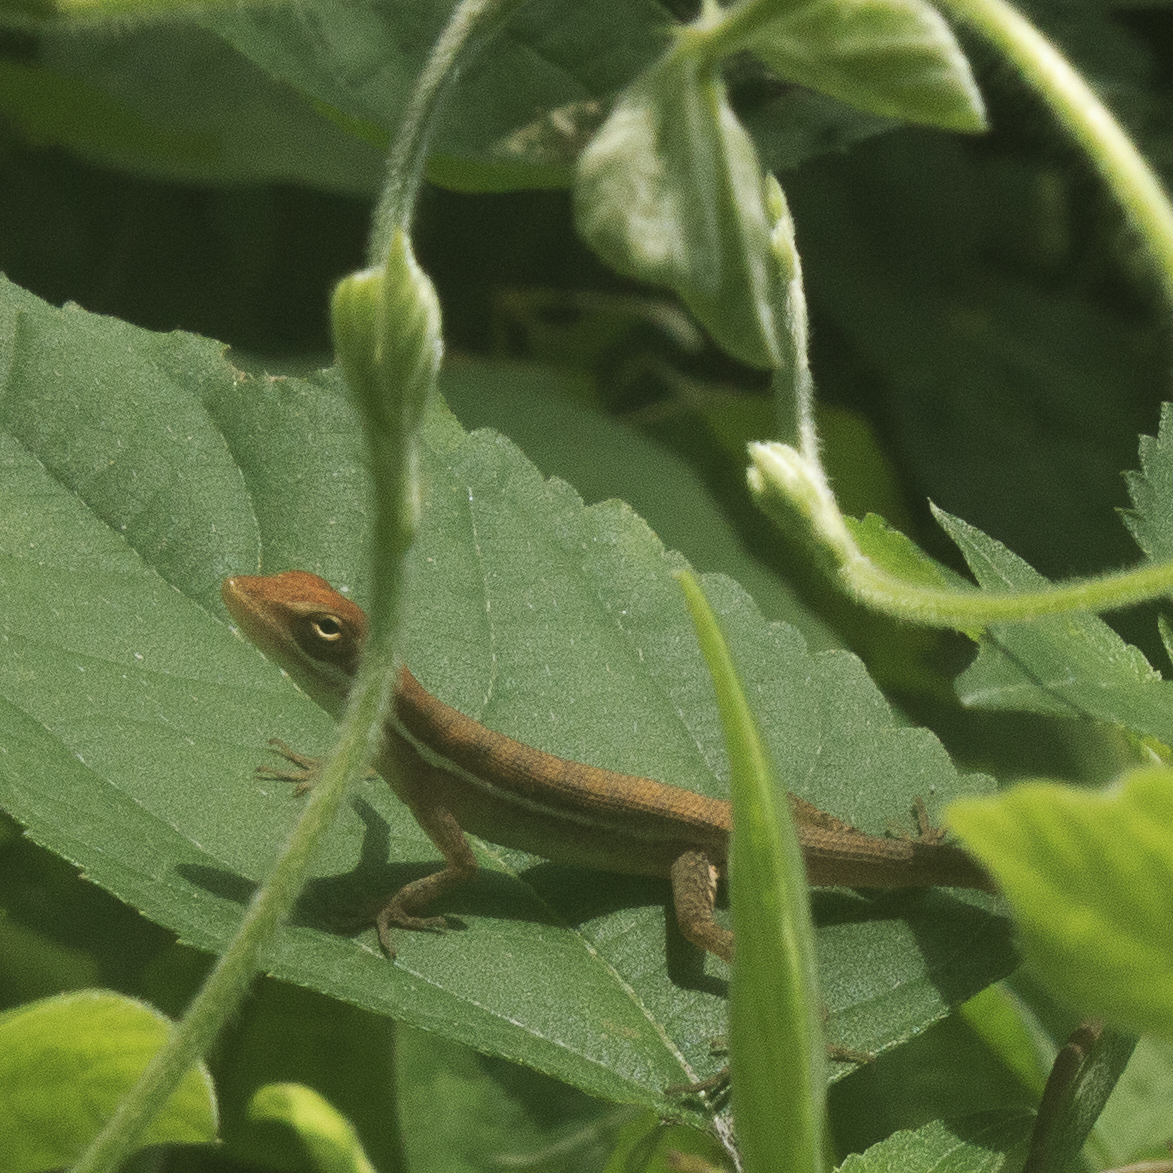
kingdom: Animalia
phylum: Chordata
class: Squamata
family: Dactyloidae
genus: Anolis
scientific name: Anolis auratus
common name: Grass anole
